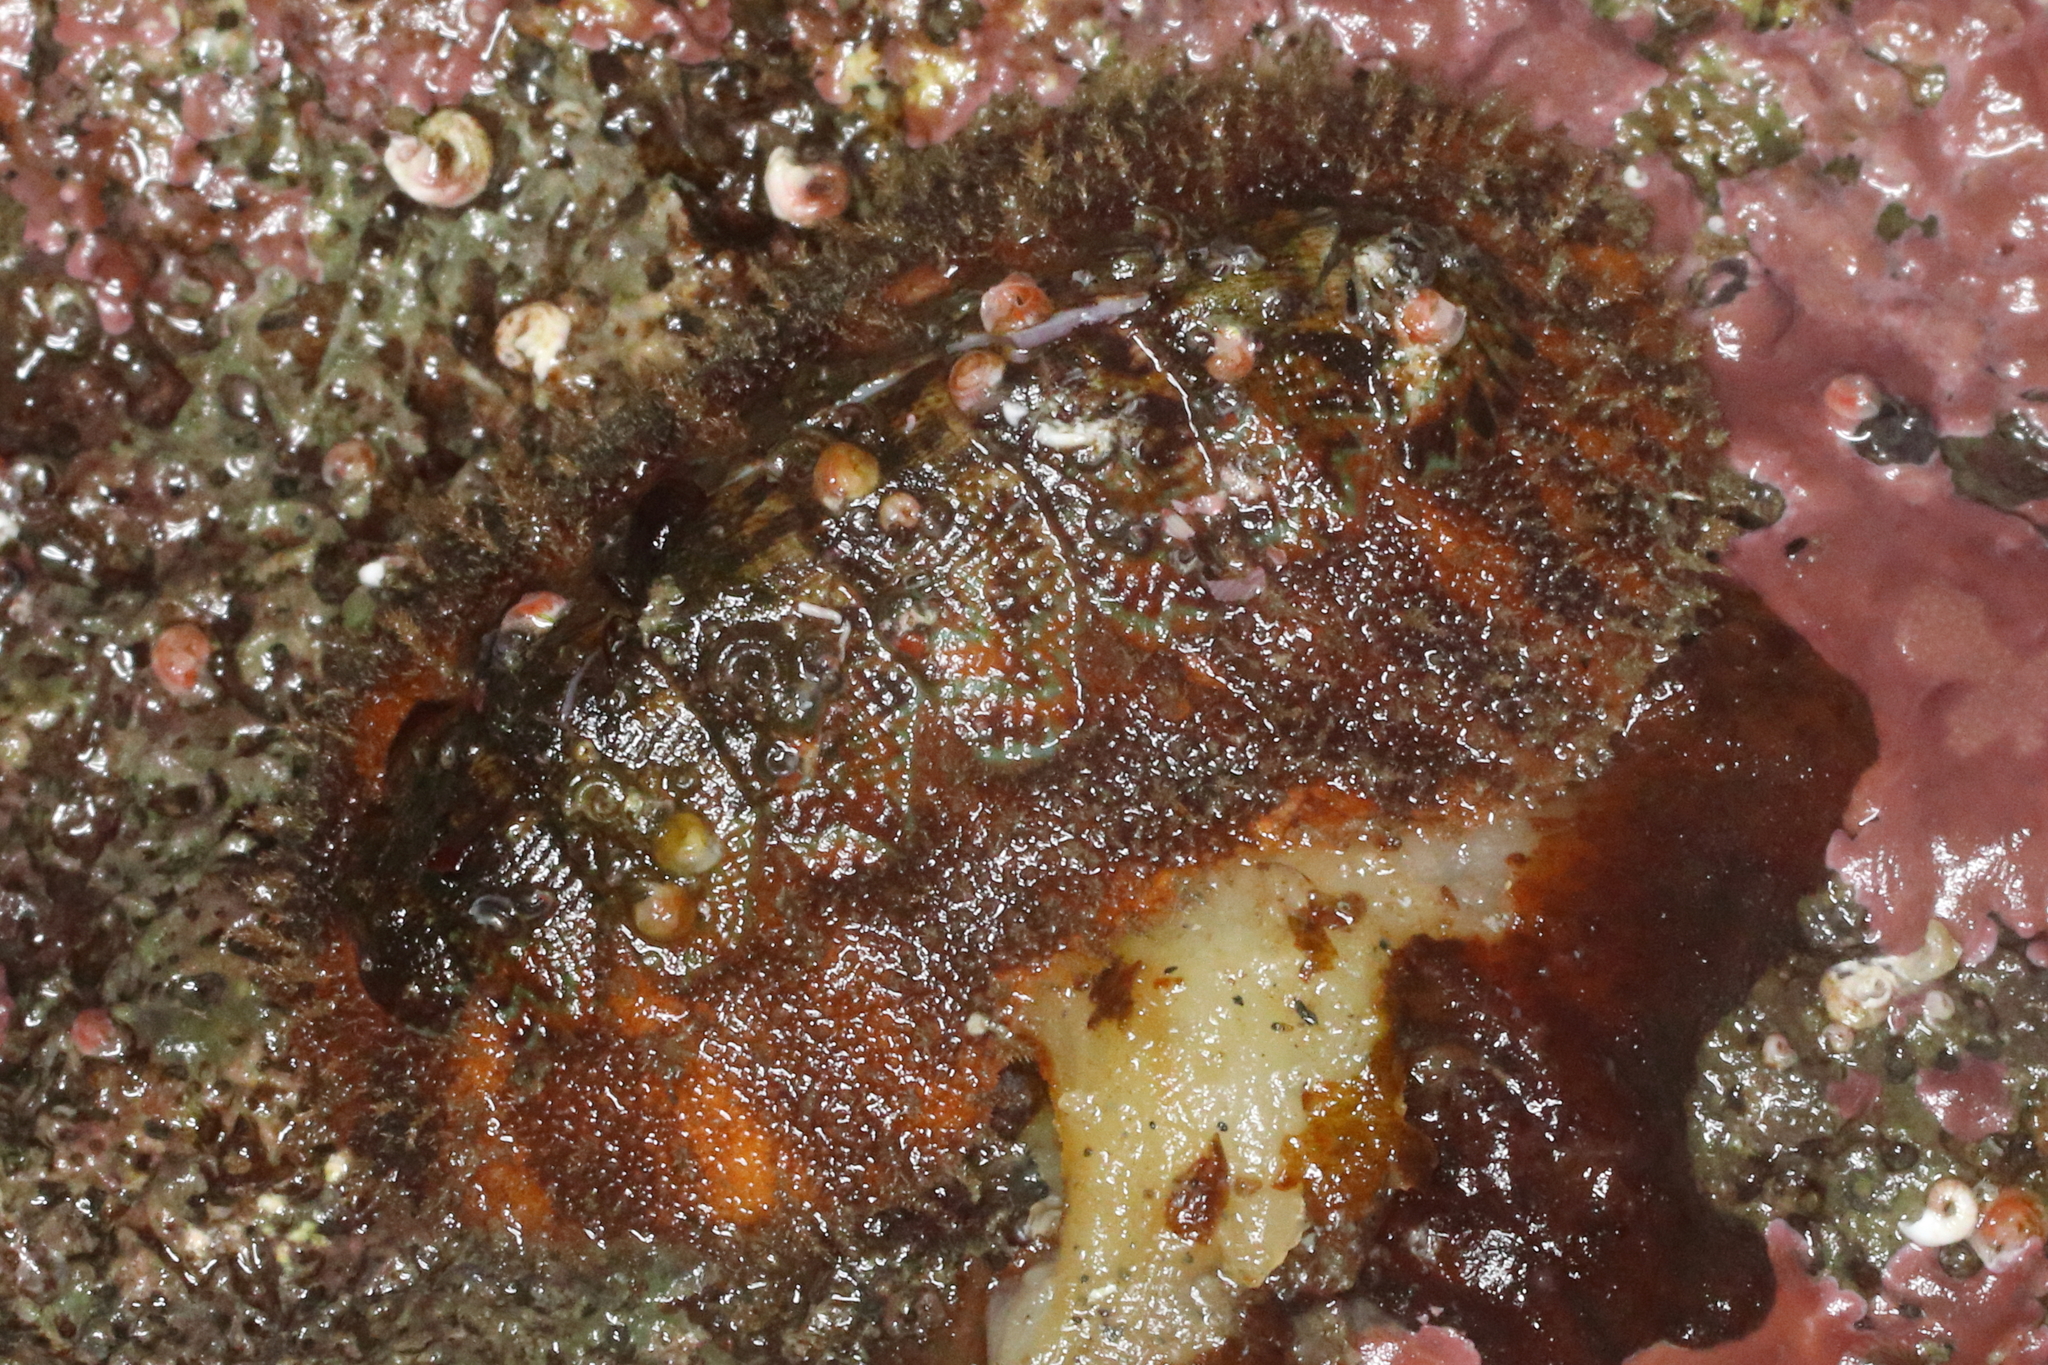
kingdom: Animalia
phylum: Mollusca
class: Polyplacophora
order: Chitonida
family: Mopaliidae
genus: Mopalia
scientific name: Mopalia spectabilis
